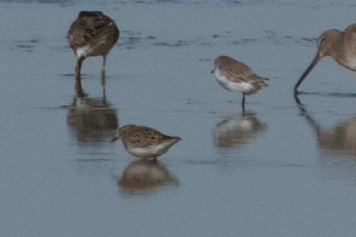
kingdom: Animalia
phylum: Chordata
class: Aves
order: Charadriiformes
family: Scolopacidae
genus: Calidris
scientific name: Calidris mauri
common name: Western sandpiper
